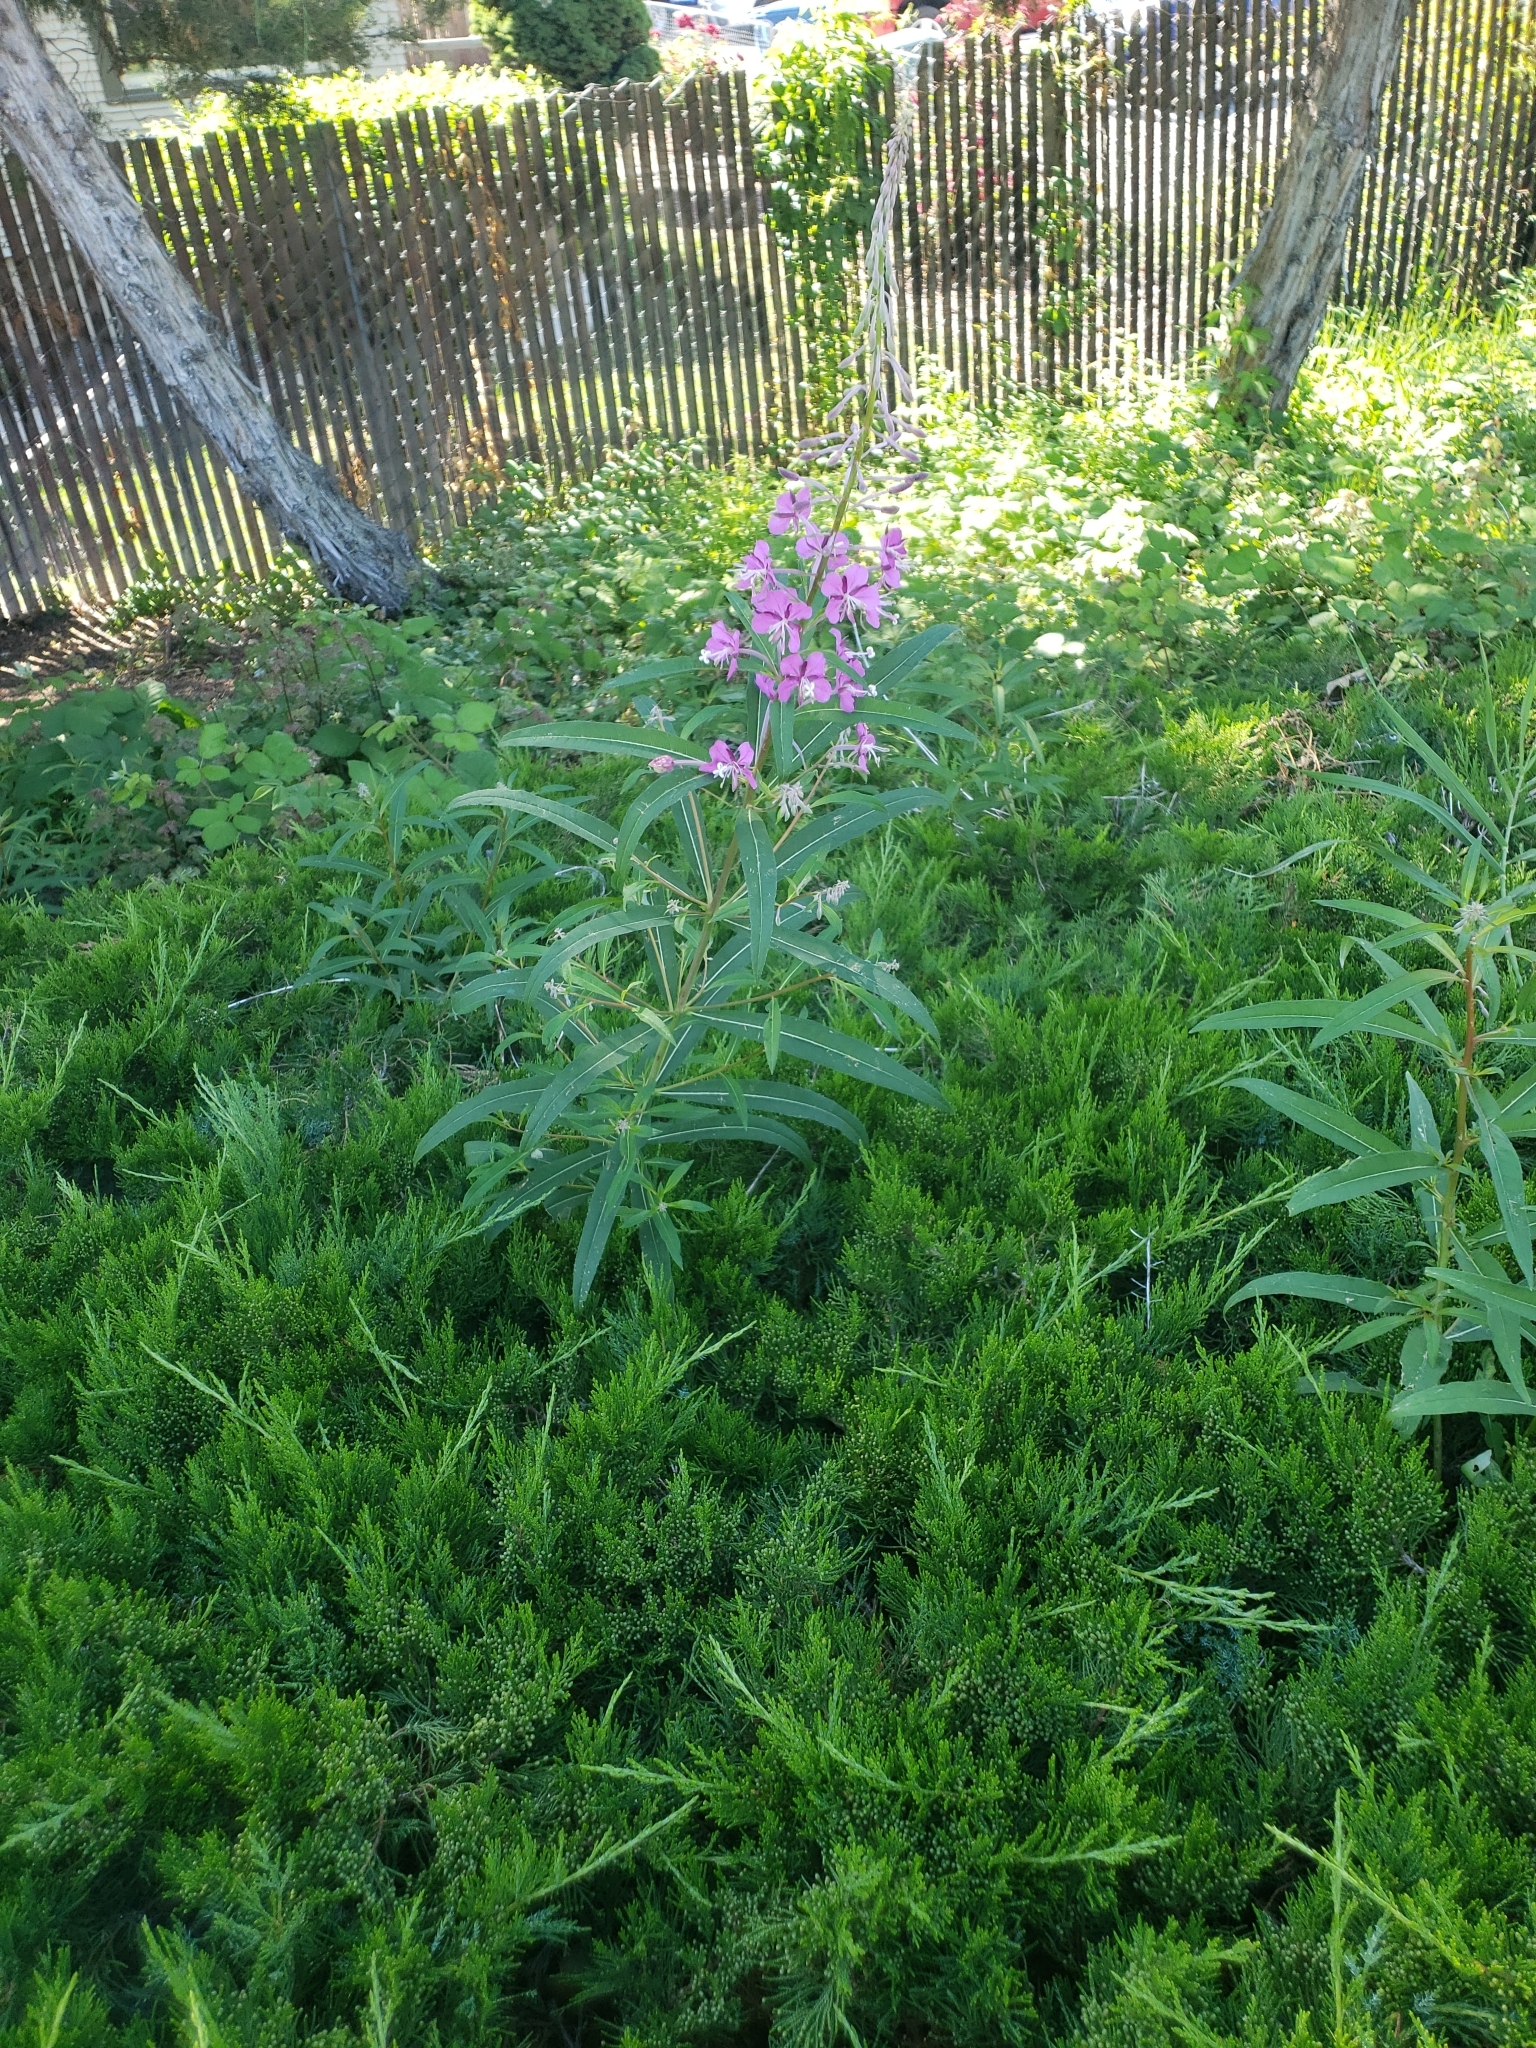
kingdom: Plantae
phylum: Tracheophyta
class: Magnoliopsida
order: Myrtales
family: Onagraceae
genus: Chamaenerion
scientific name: Chamaenerion angustifolium
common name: Fireweed
